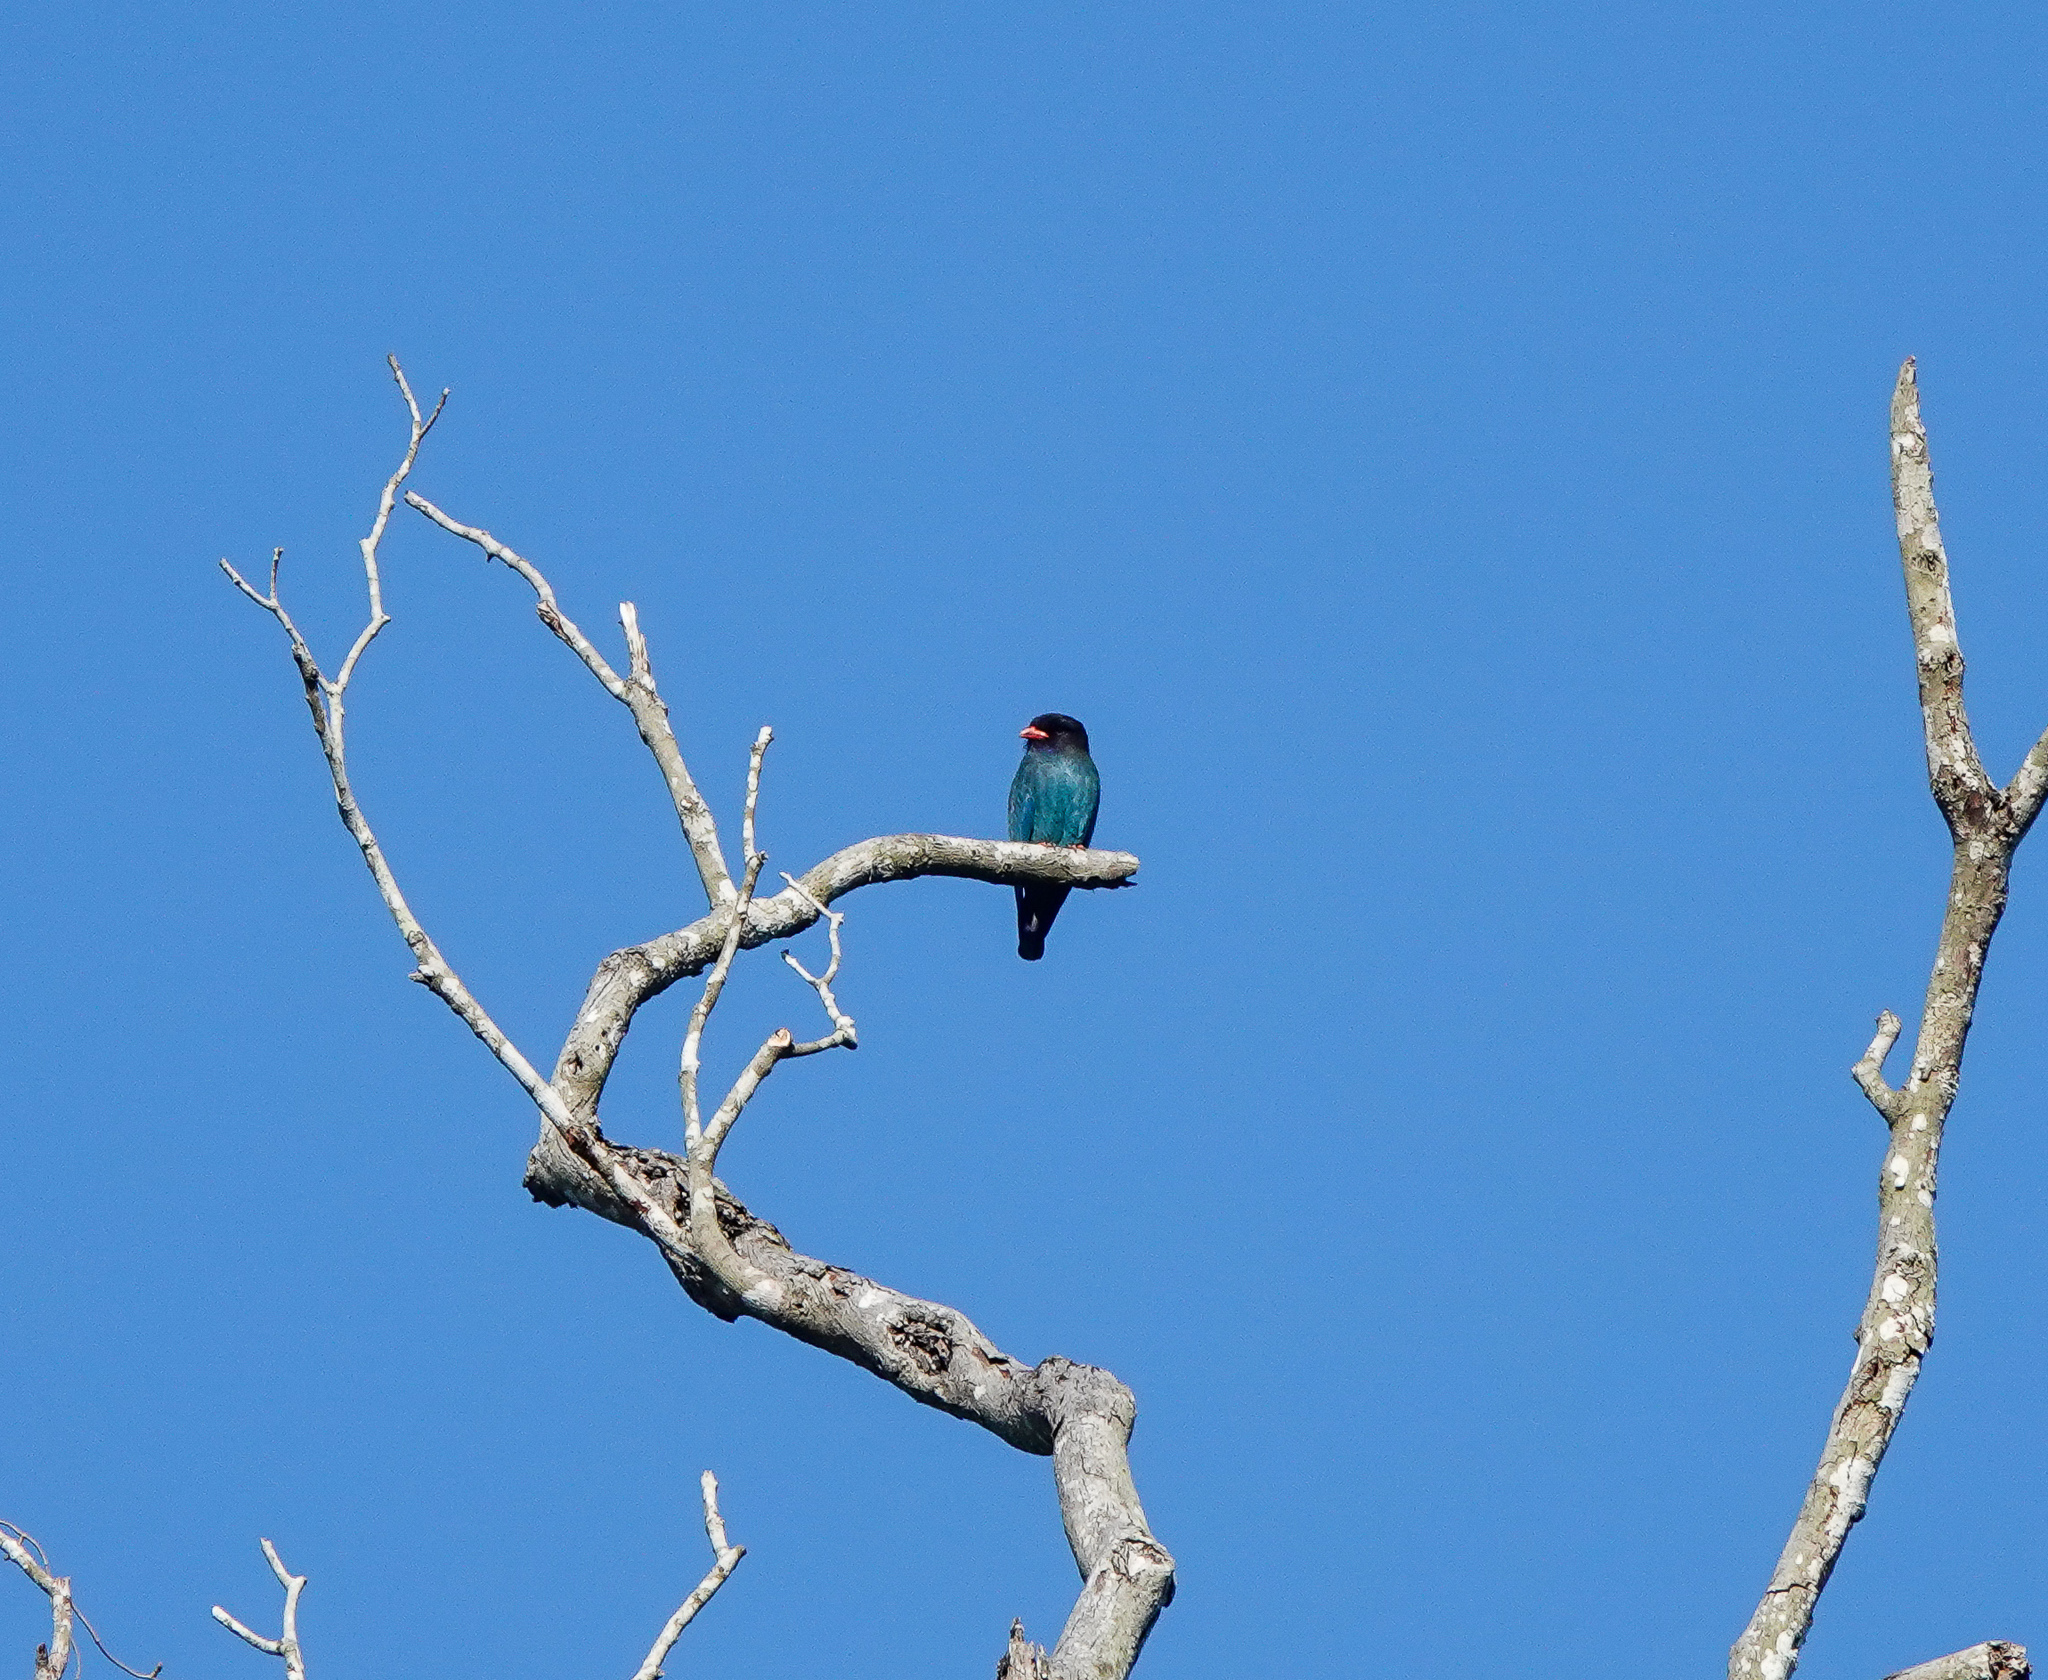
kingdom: Animalia
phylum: Chordata
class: Aves
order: Coraciiformes
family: Coraciidae
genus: Eurystomus
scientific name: Eurystomus orientalis
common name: Oriental dollarbird
